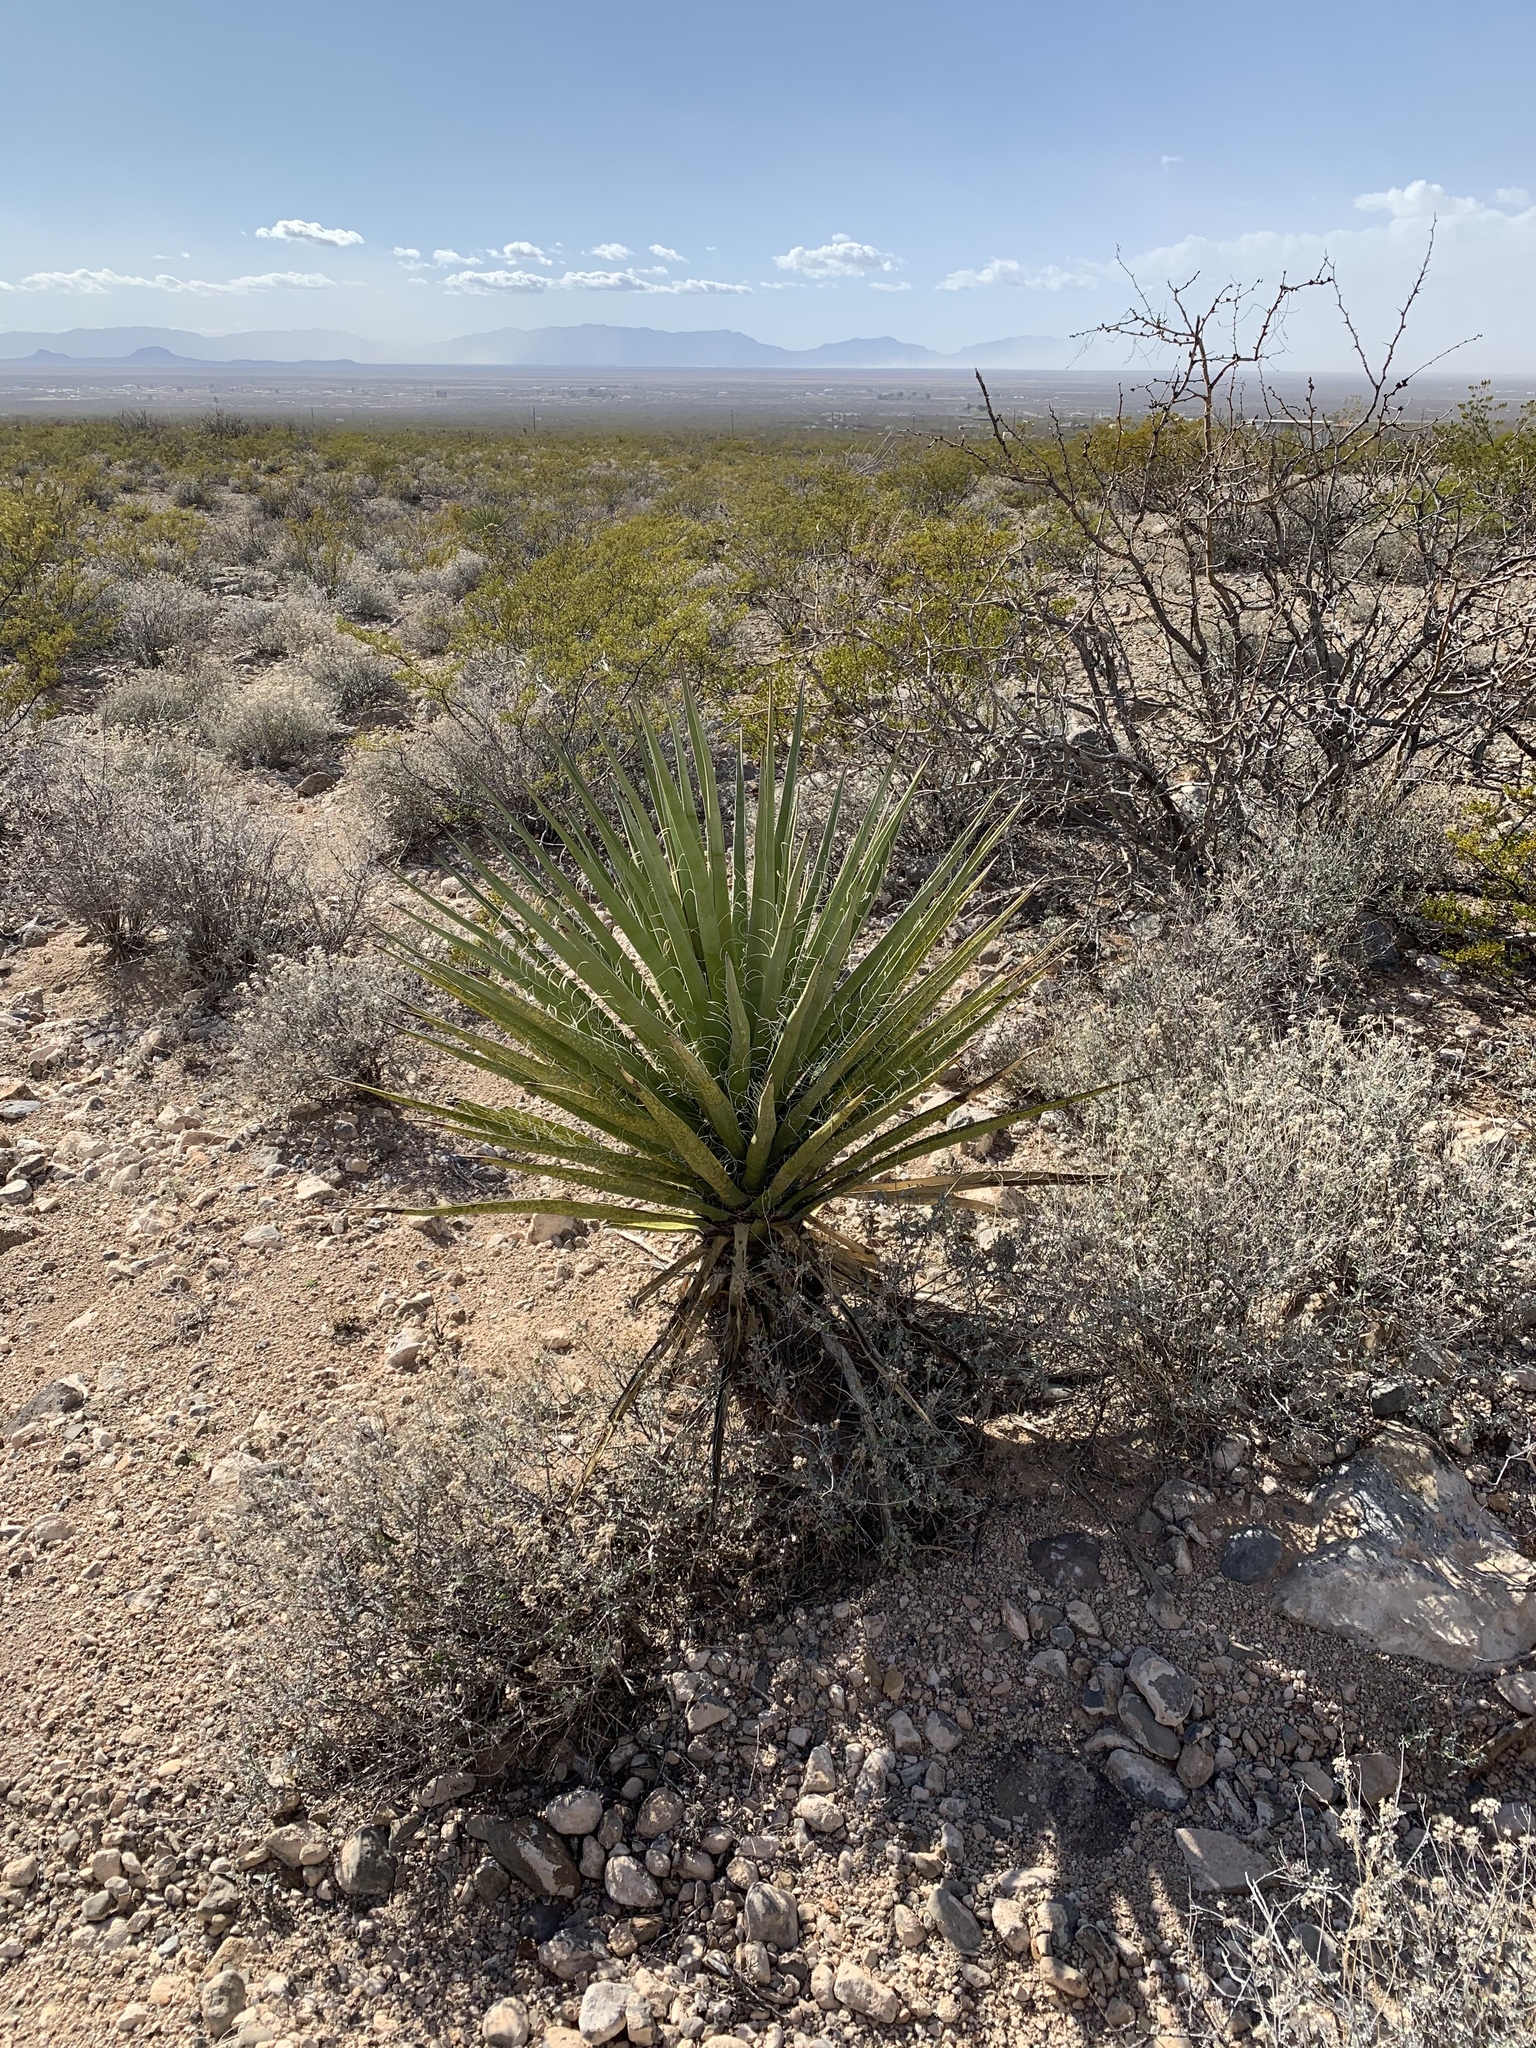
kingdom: Plantae
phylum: Tracheophyta
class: Liliopsida
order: Asparagales
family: Asparagaceae
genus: Yucca
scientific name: Yucca treculiana
